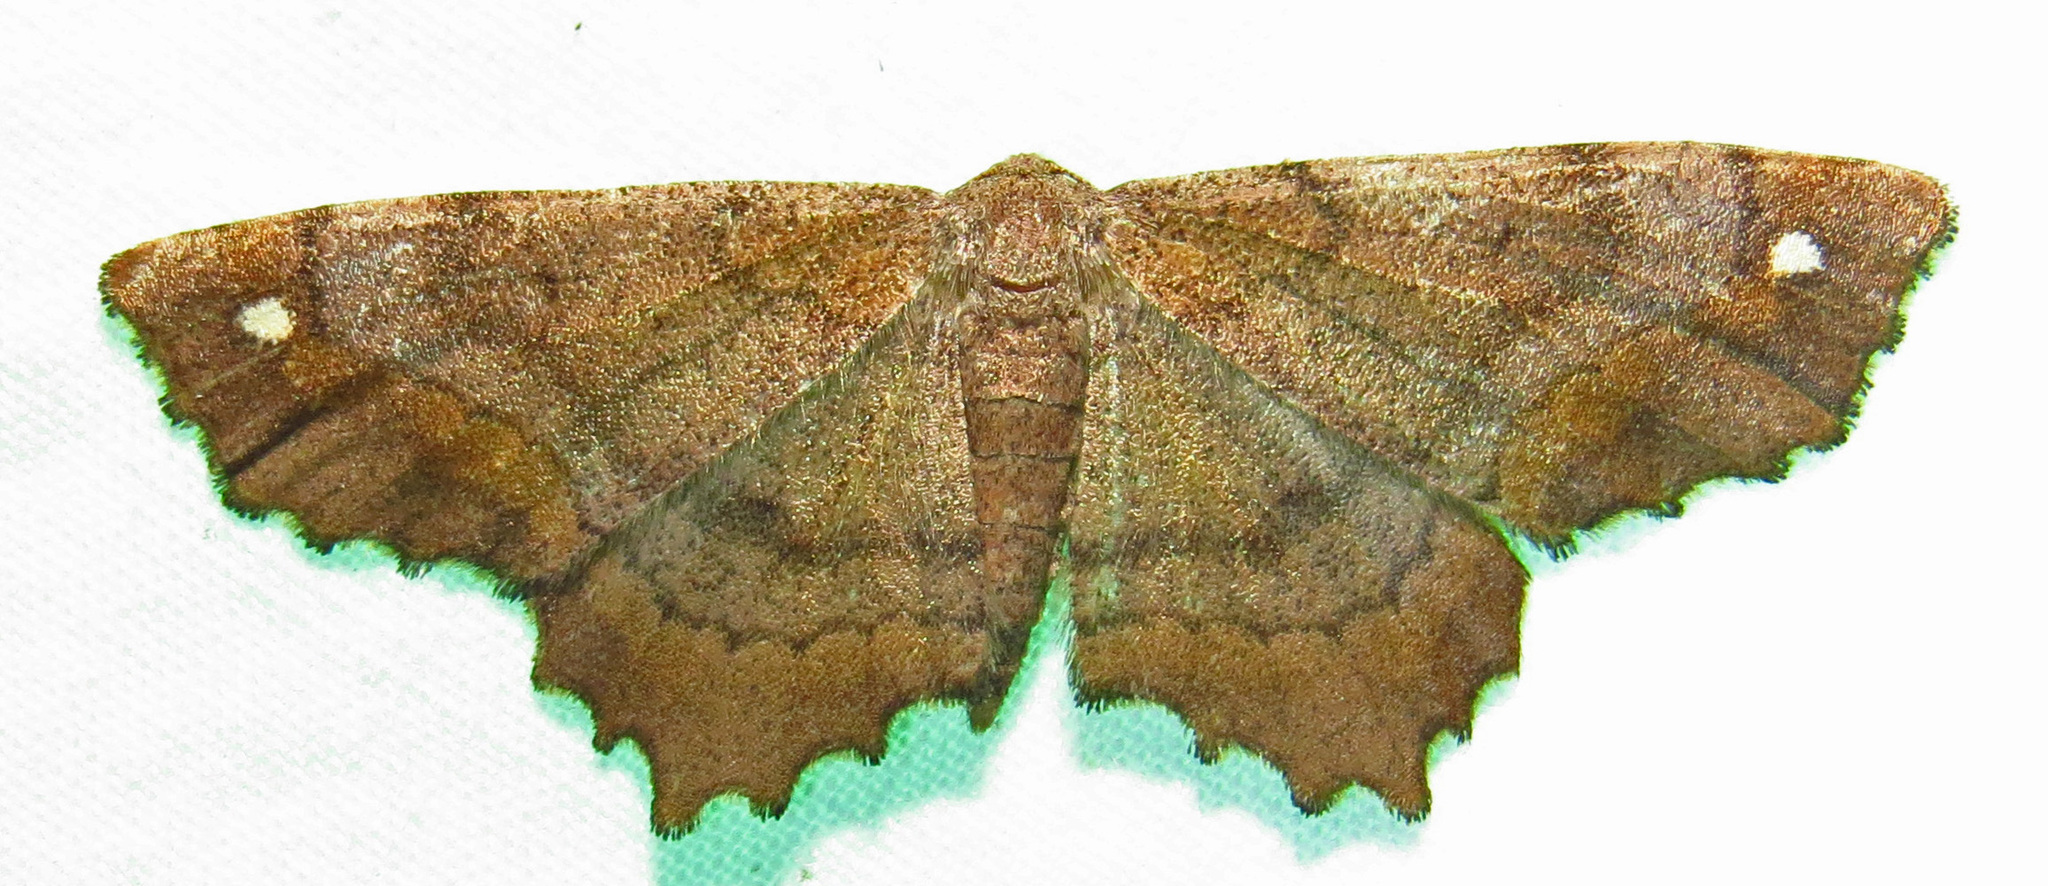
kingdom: Animalia
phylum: Arthropoda
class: Insecta
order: Lepidoptera
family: Geometridae
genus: Hypagyrtis
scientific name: Hypagyrtis unipunctata
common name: One-spotted variant
